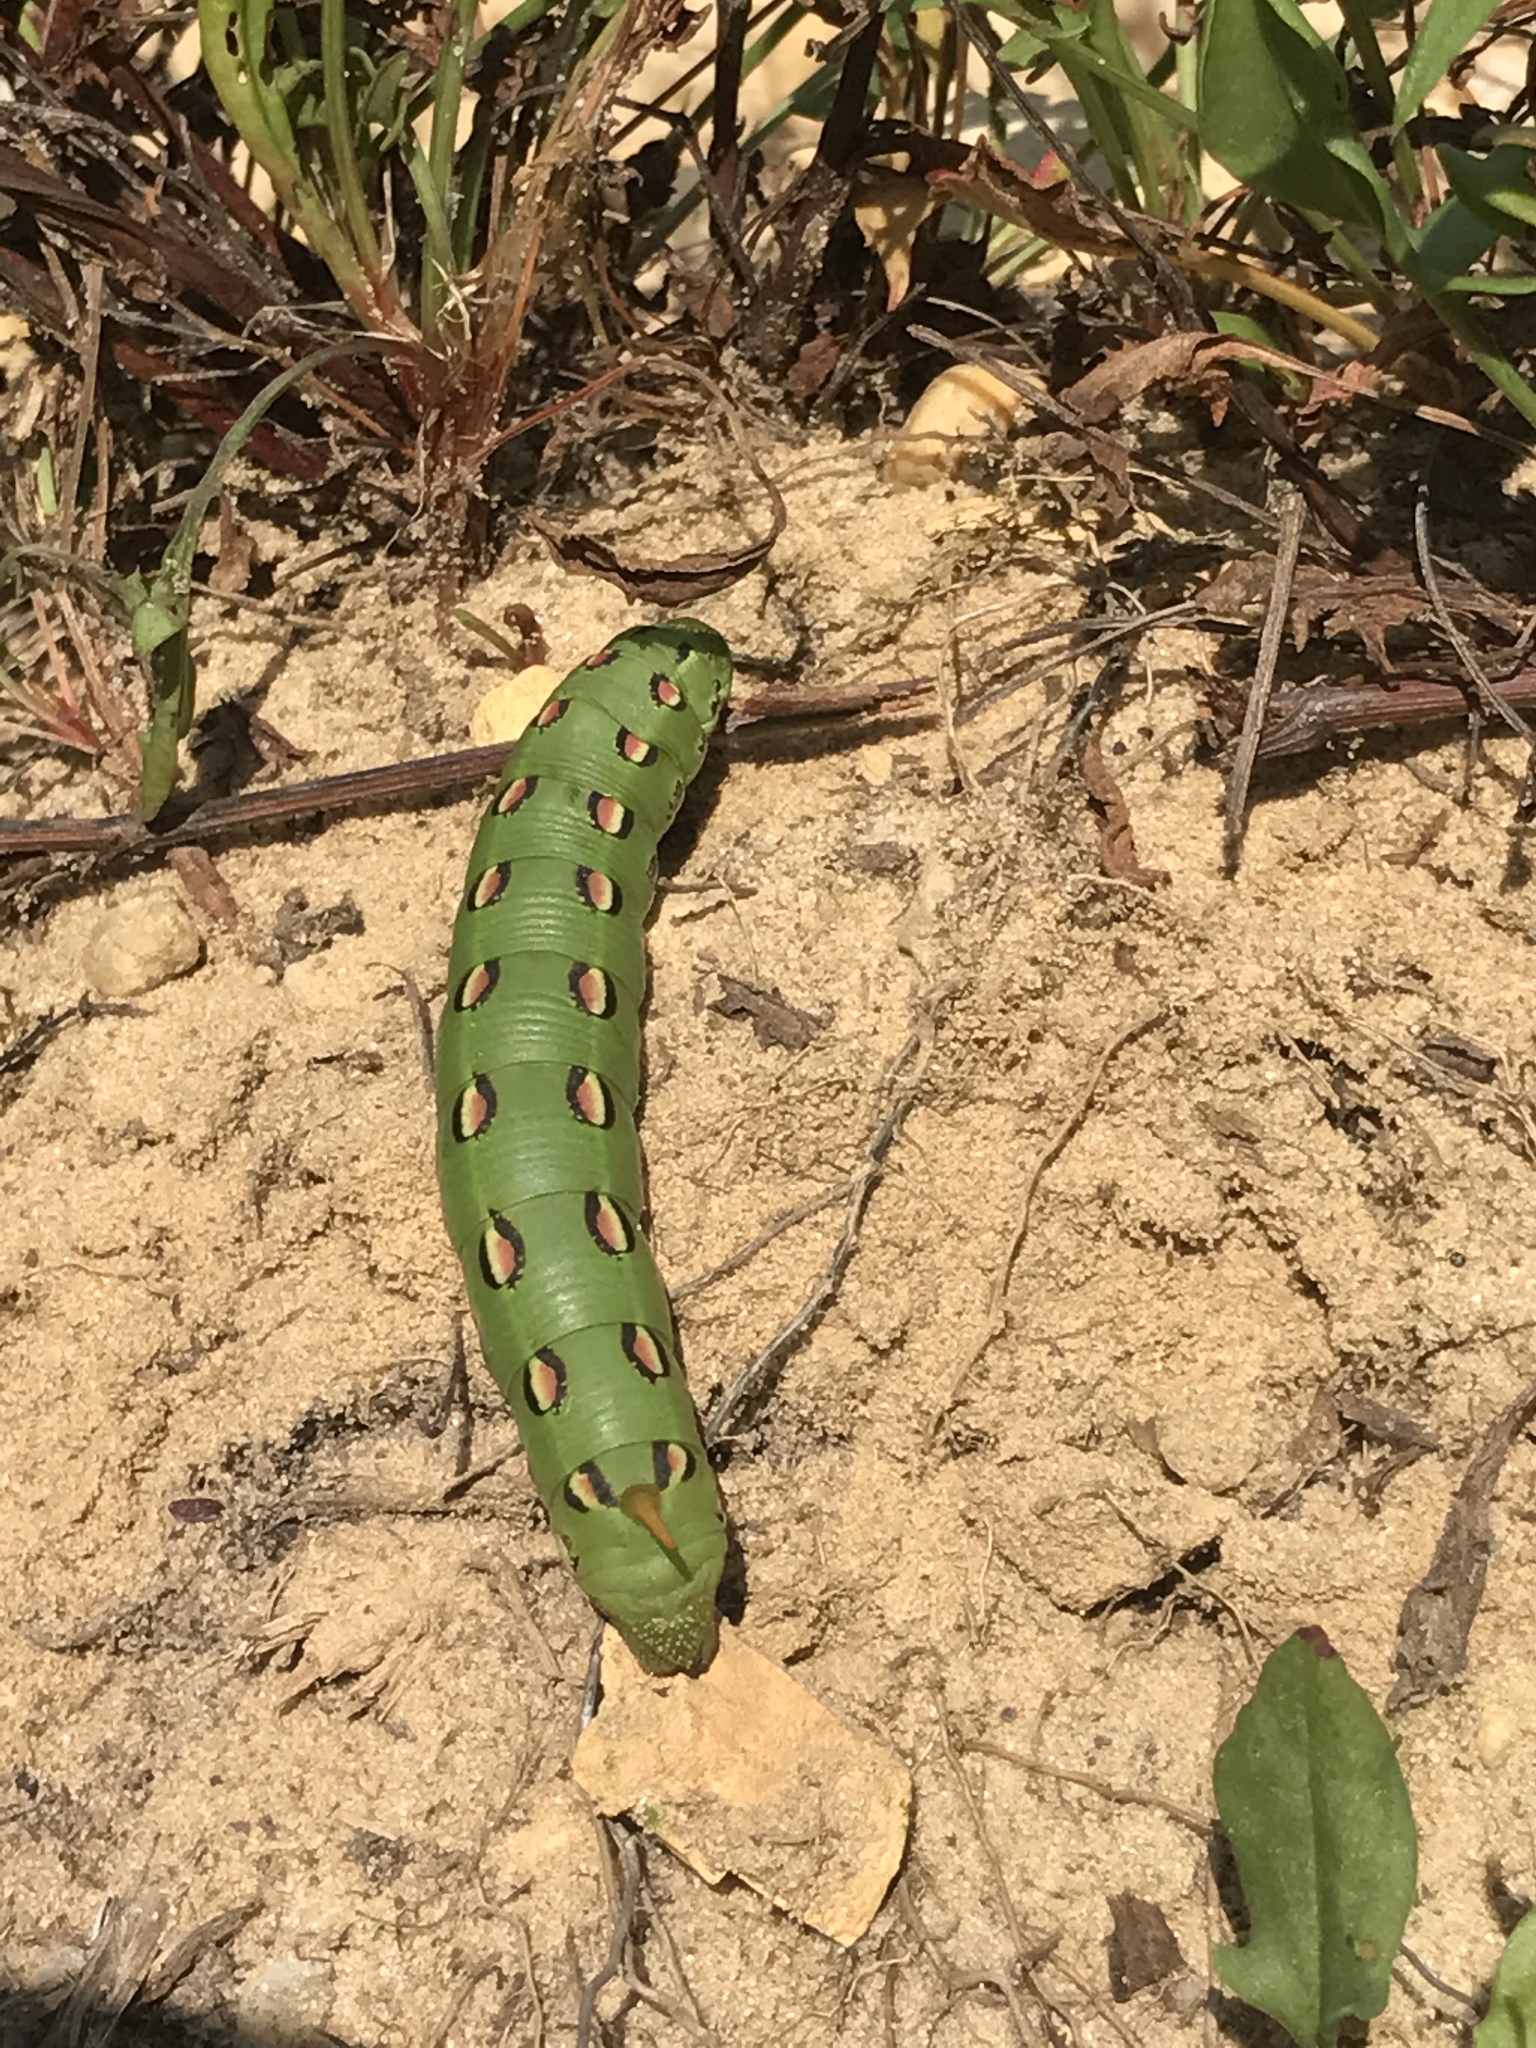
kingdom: Animalia
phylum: Arthropoda
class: Insecta
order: Lepidoptera
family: Sphingidae
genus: Hyles
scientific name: Hyles lineata
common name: White-lined sphinx
